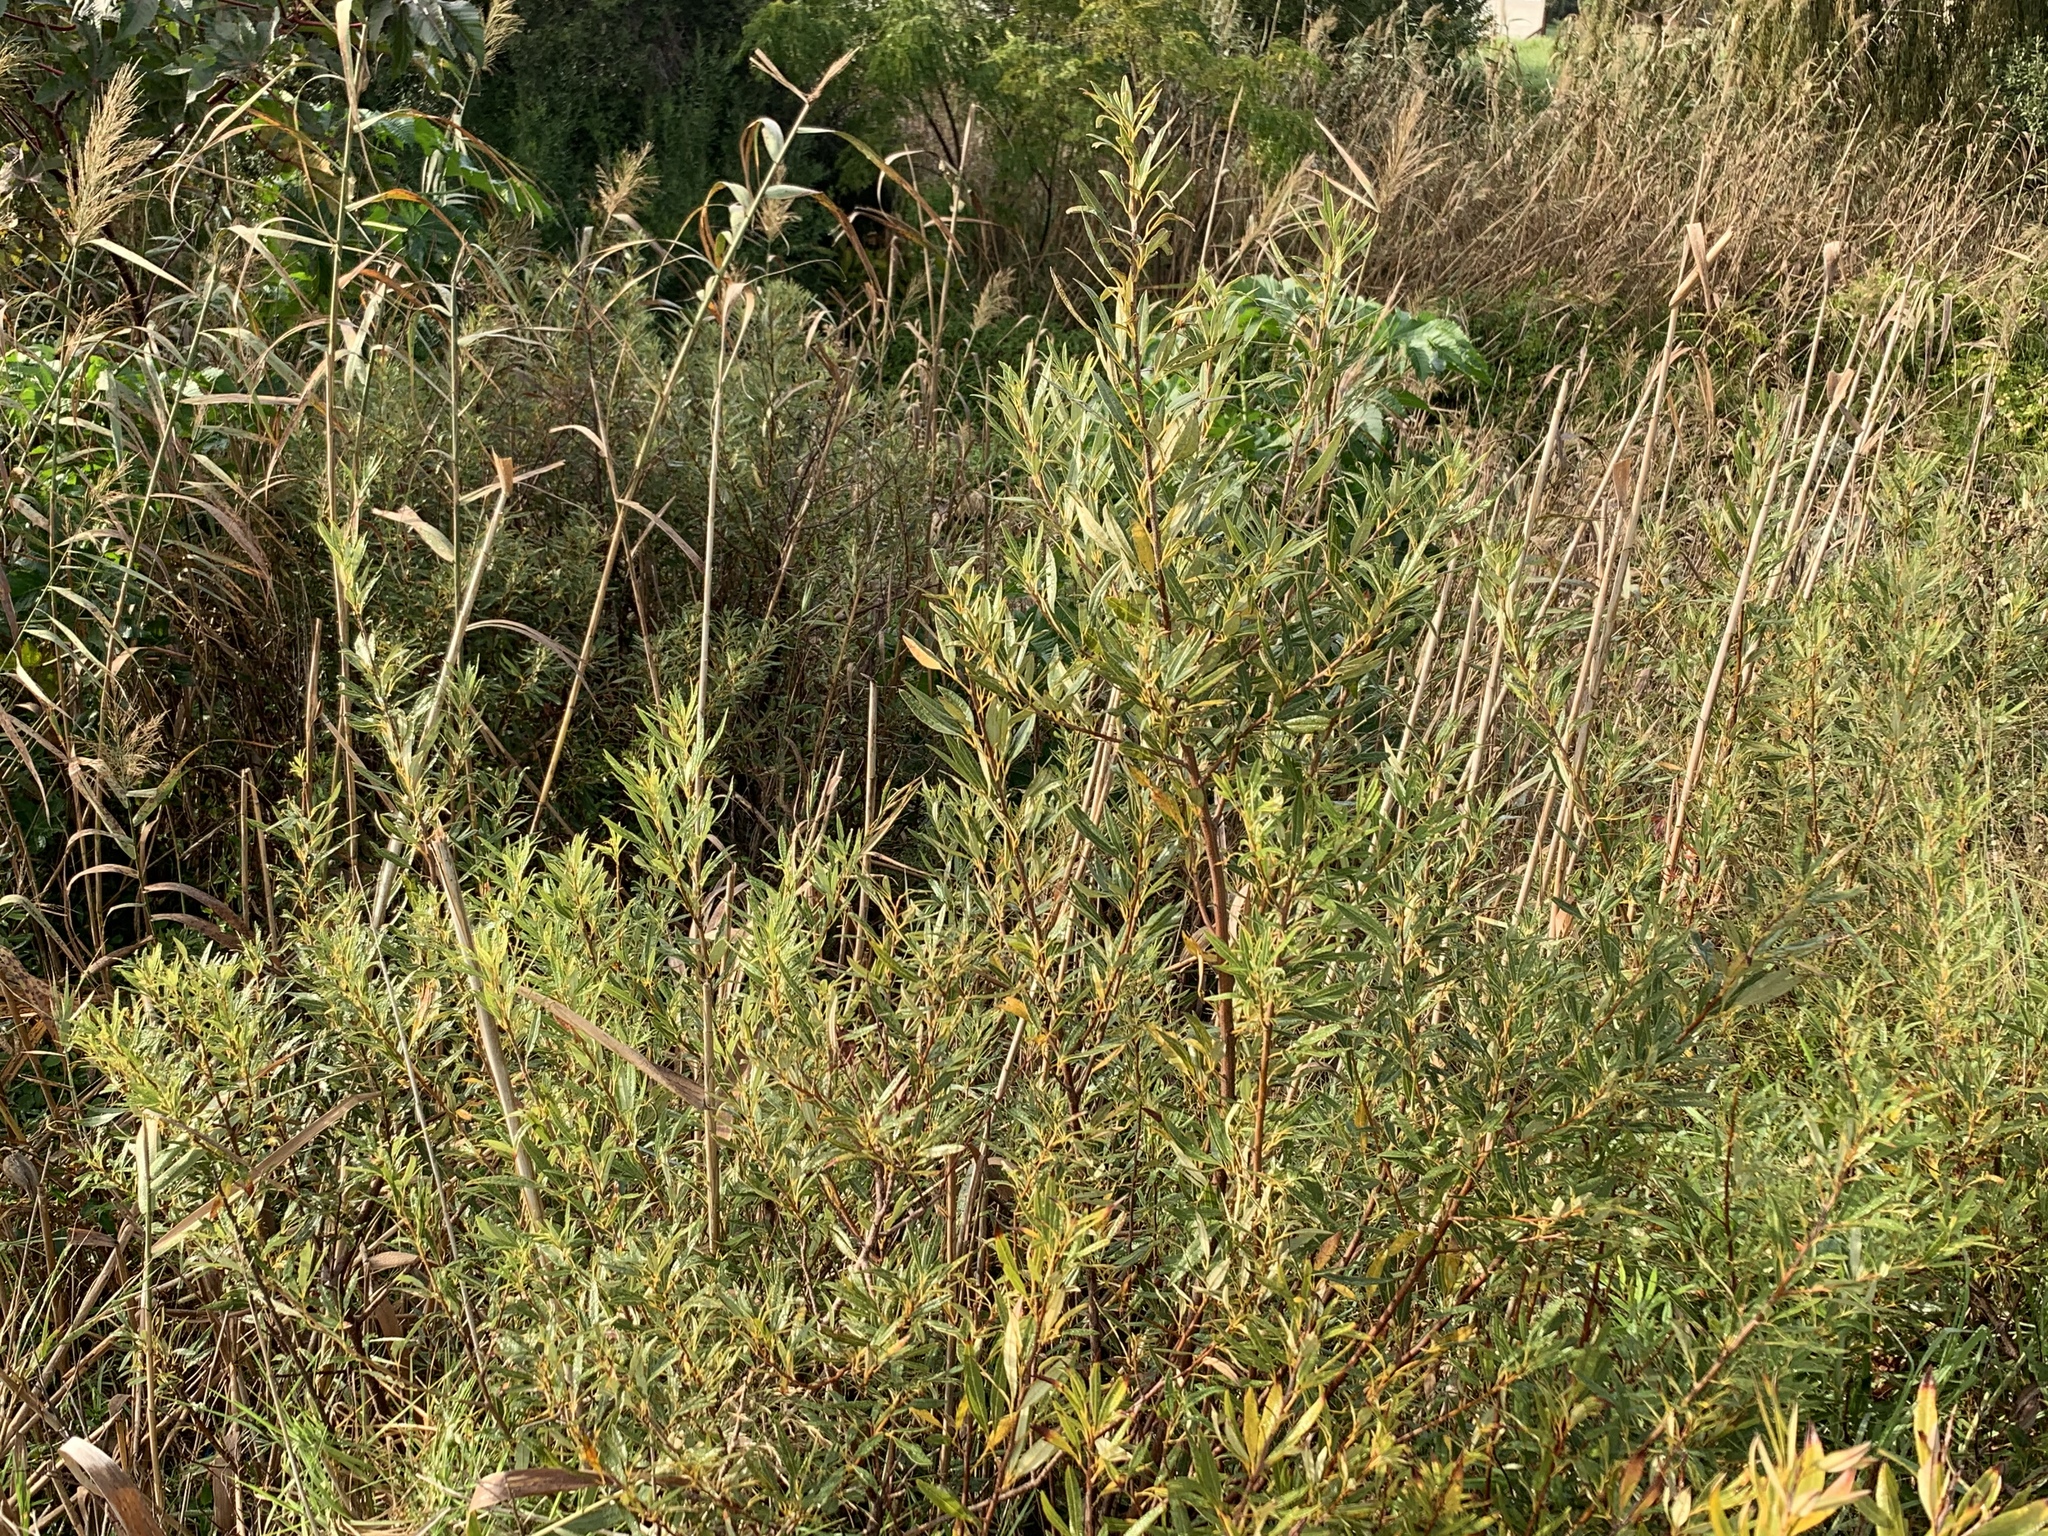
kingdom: Plantae
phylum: Tracheophyta
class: Magnoliopsida
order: Sapindales
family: Anacardiaceae
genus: Searsia
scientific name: Searsia angustifolia
